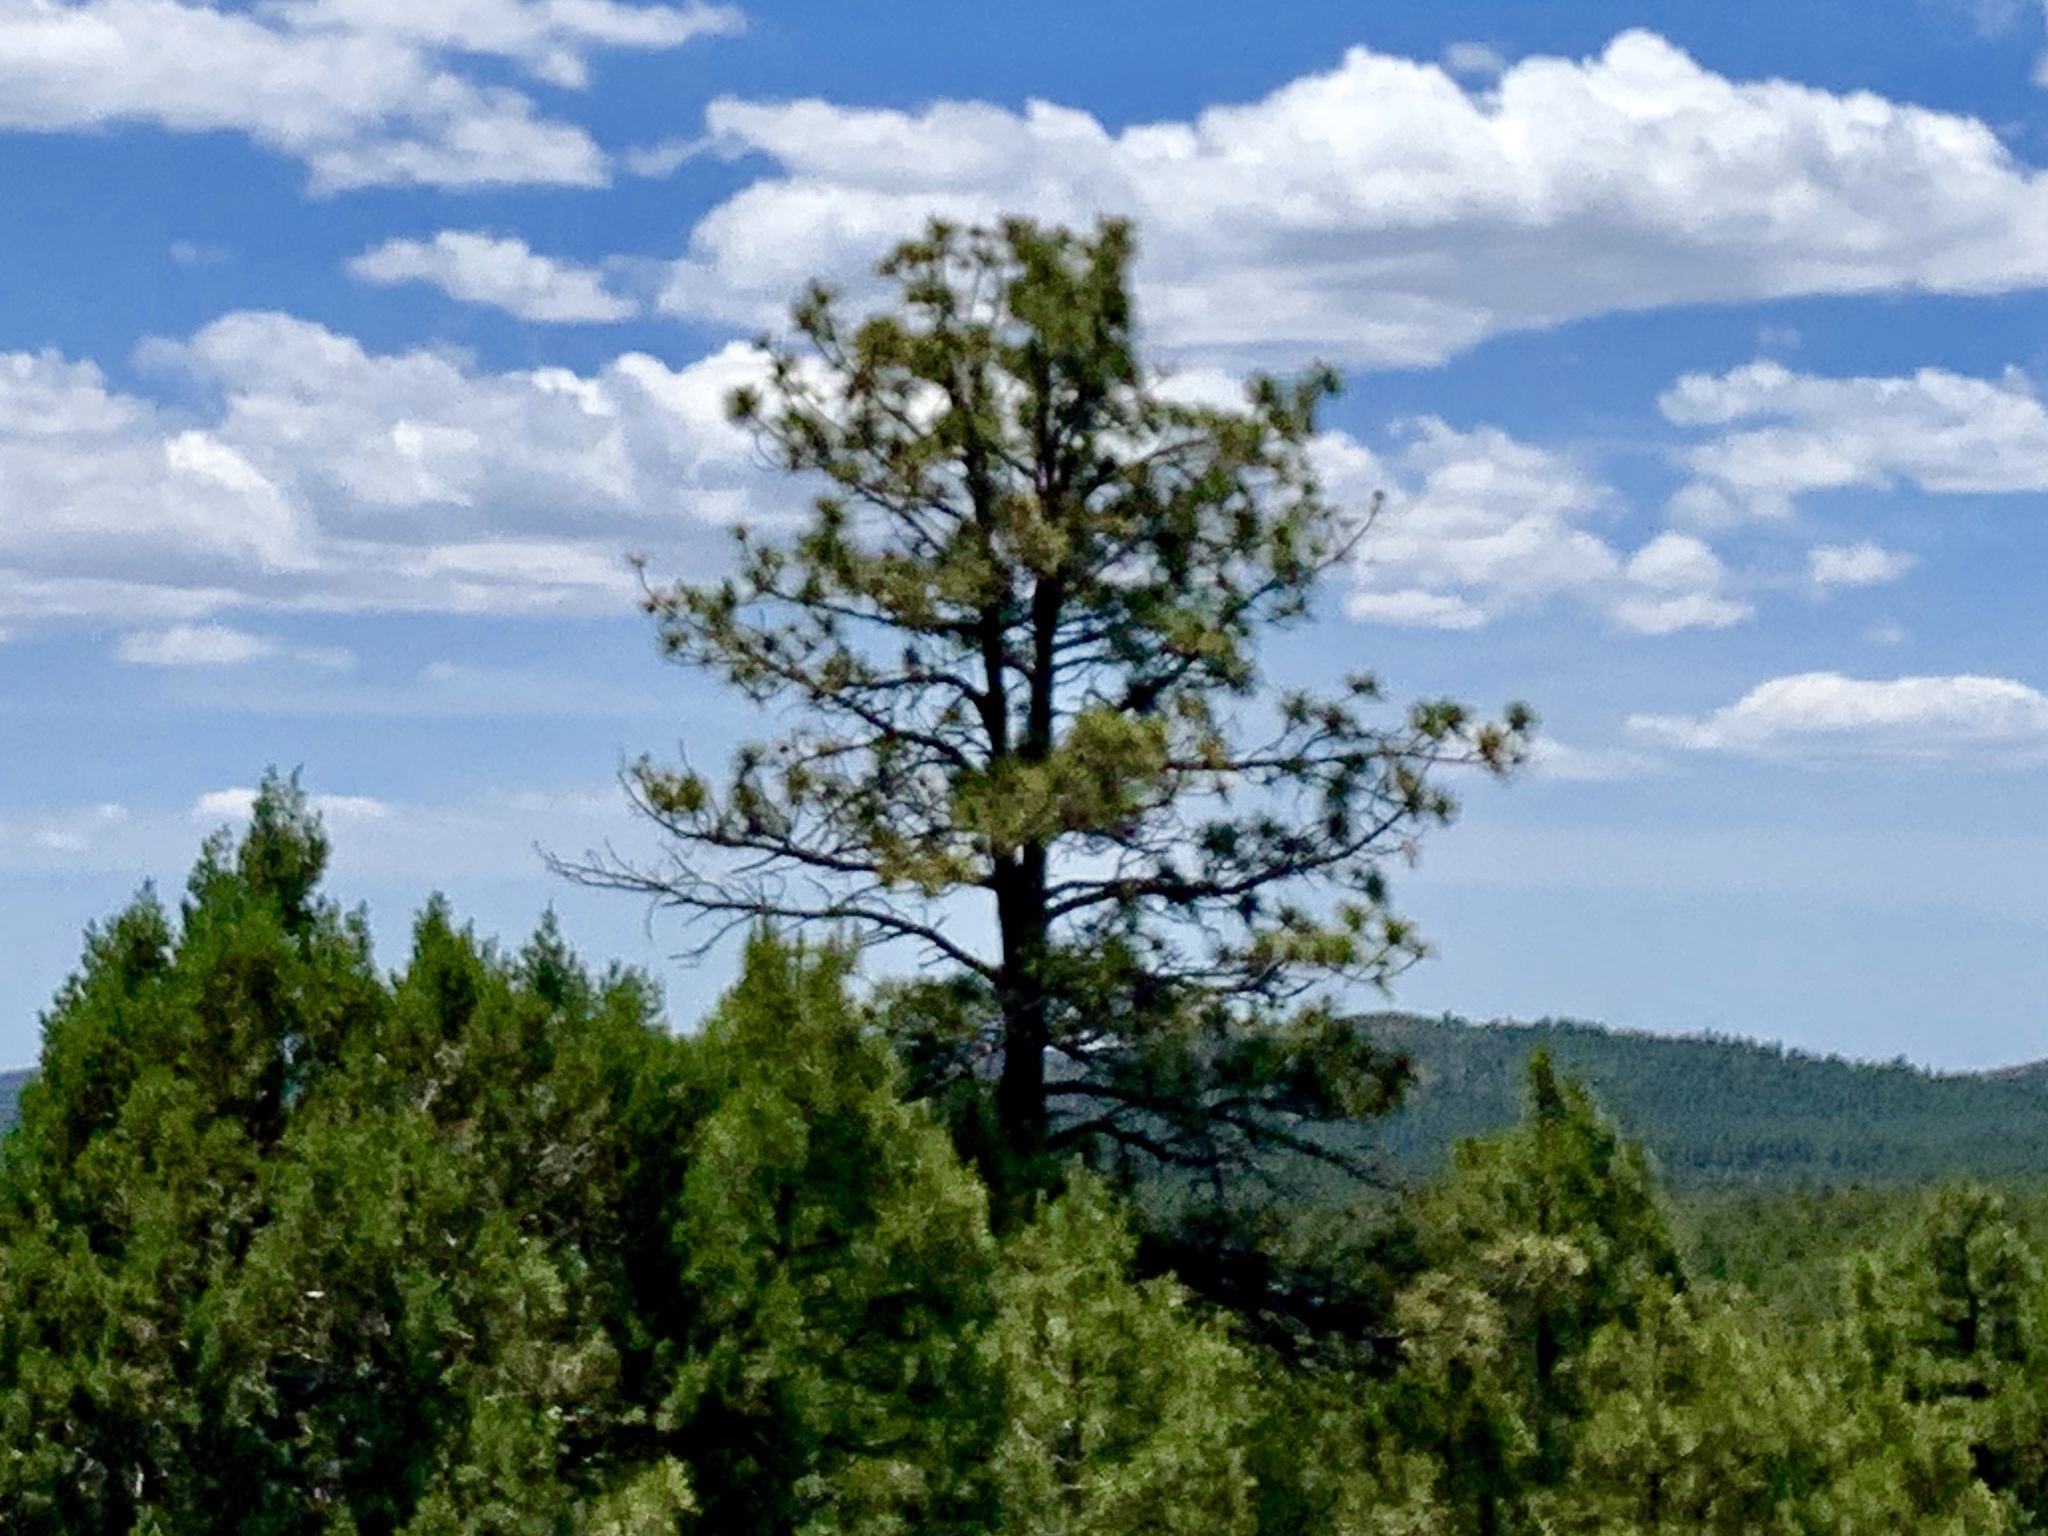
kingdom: Plantae
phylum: Tracheophyta
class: Pinopsida
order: Pinales
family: Pinaceae
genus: Pinus
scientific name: Pinus ponderosa
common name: Western yellow-pine
